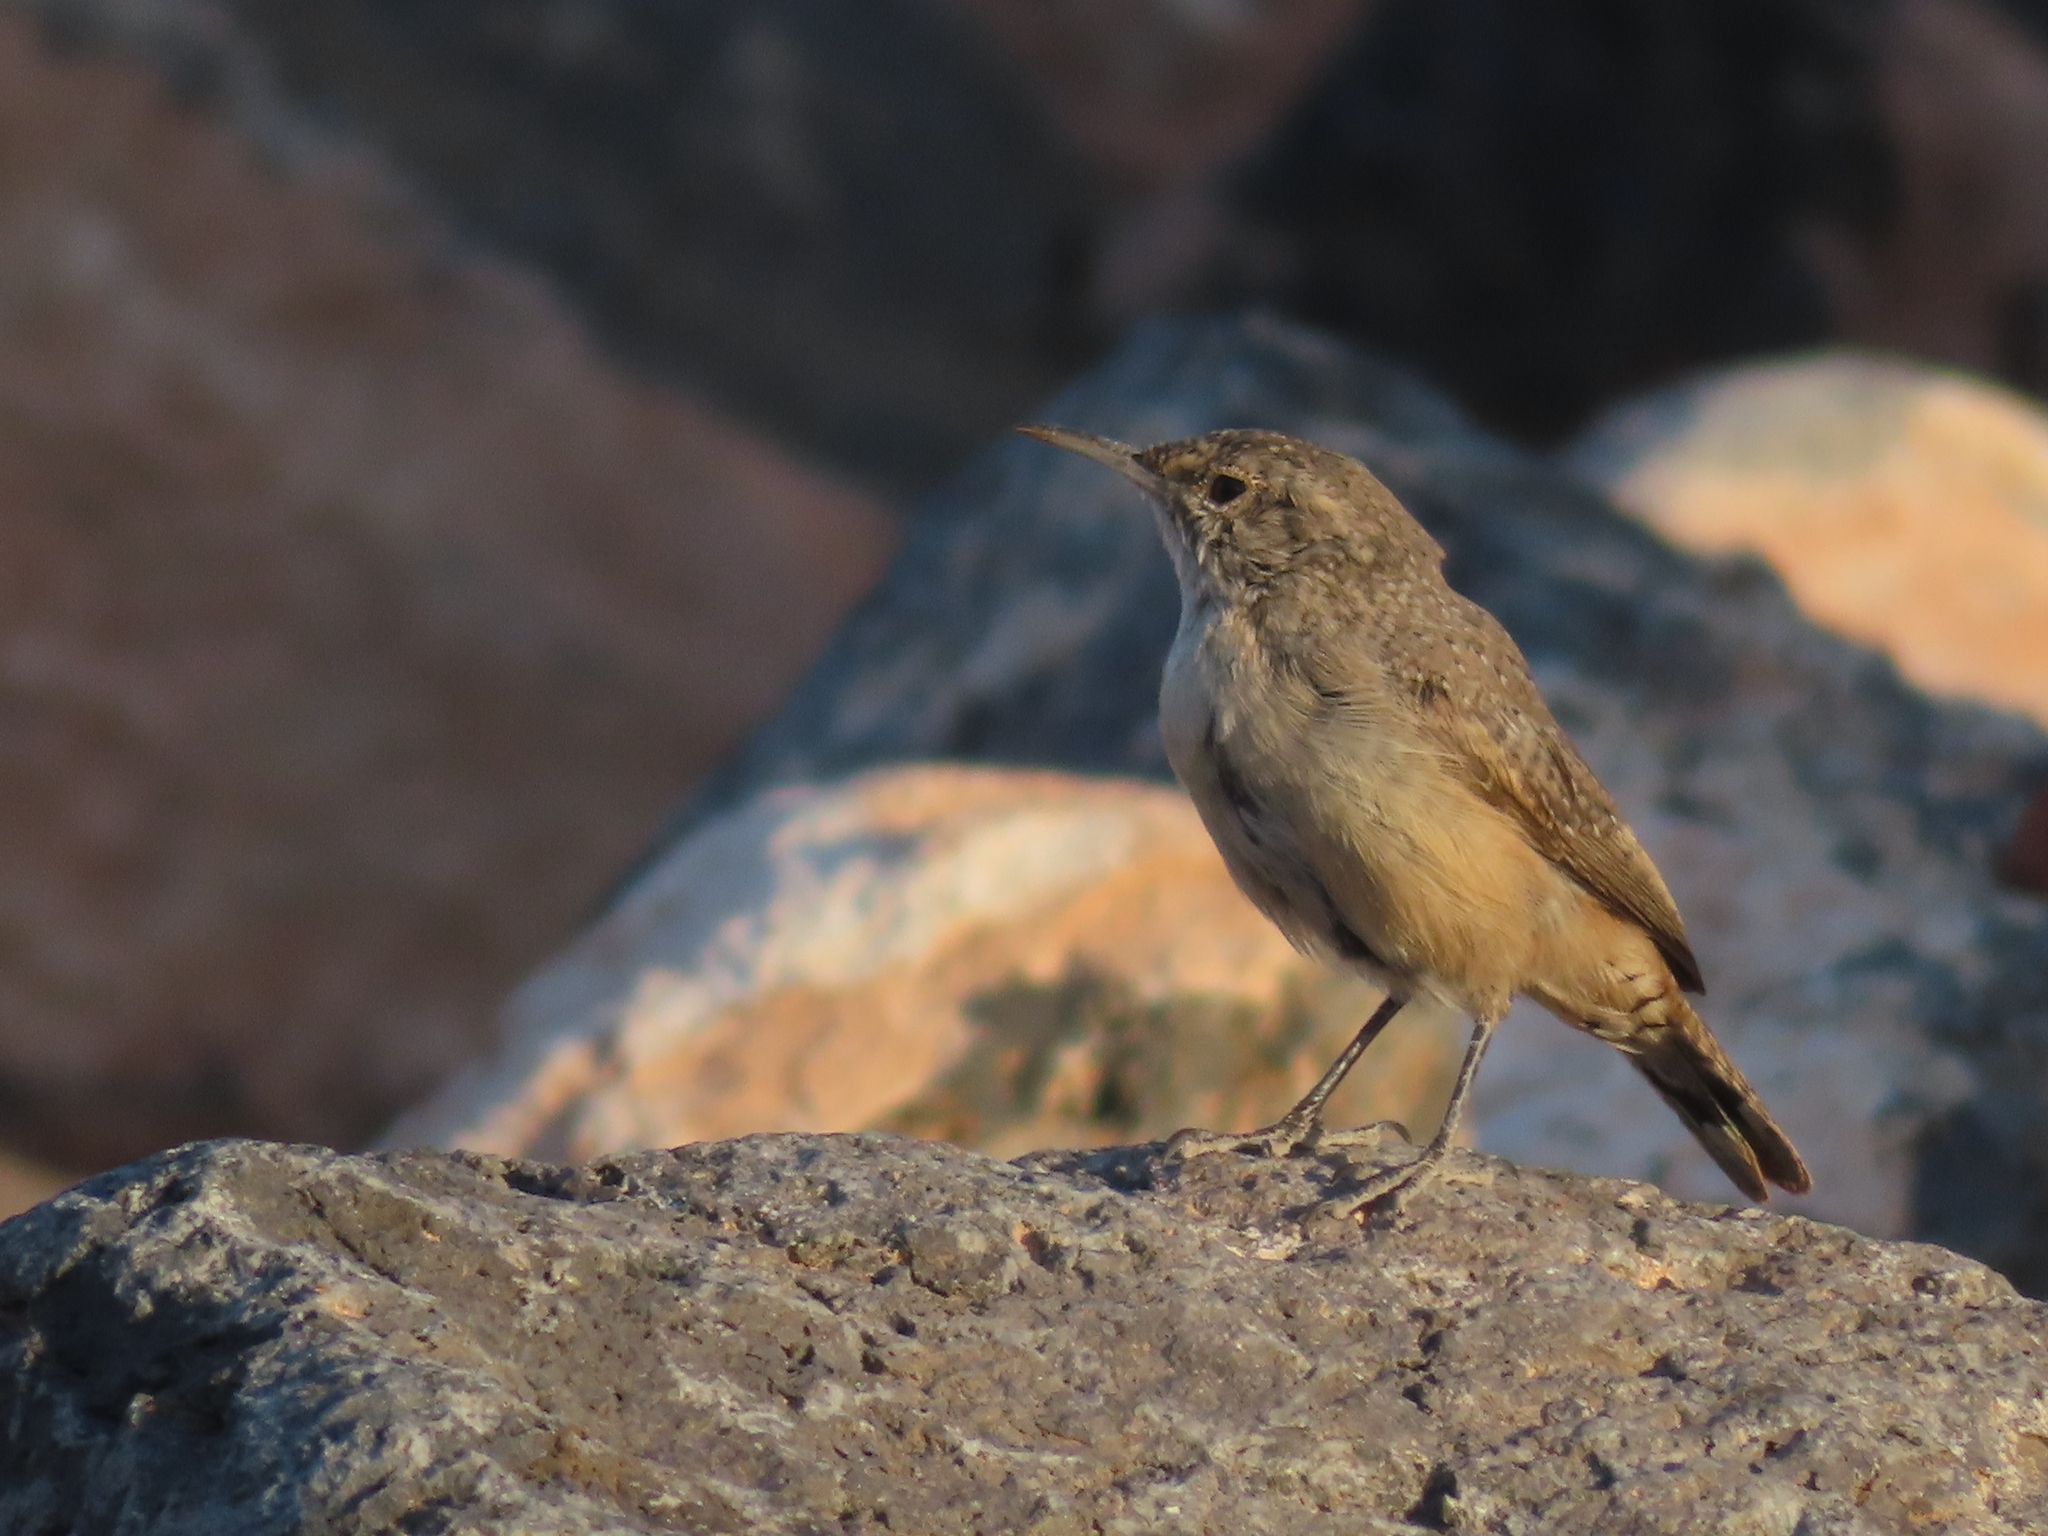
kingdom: Animalia
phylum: Chordata
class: Aves
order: Passeriformes
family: Troglodytidae
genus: Salpinctes
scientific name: Salpinctes obsoletus
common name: Rock wren
